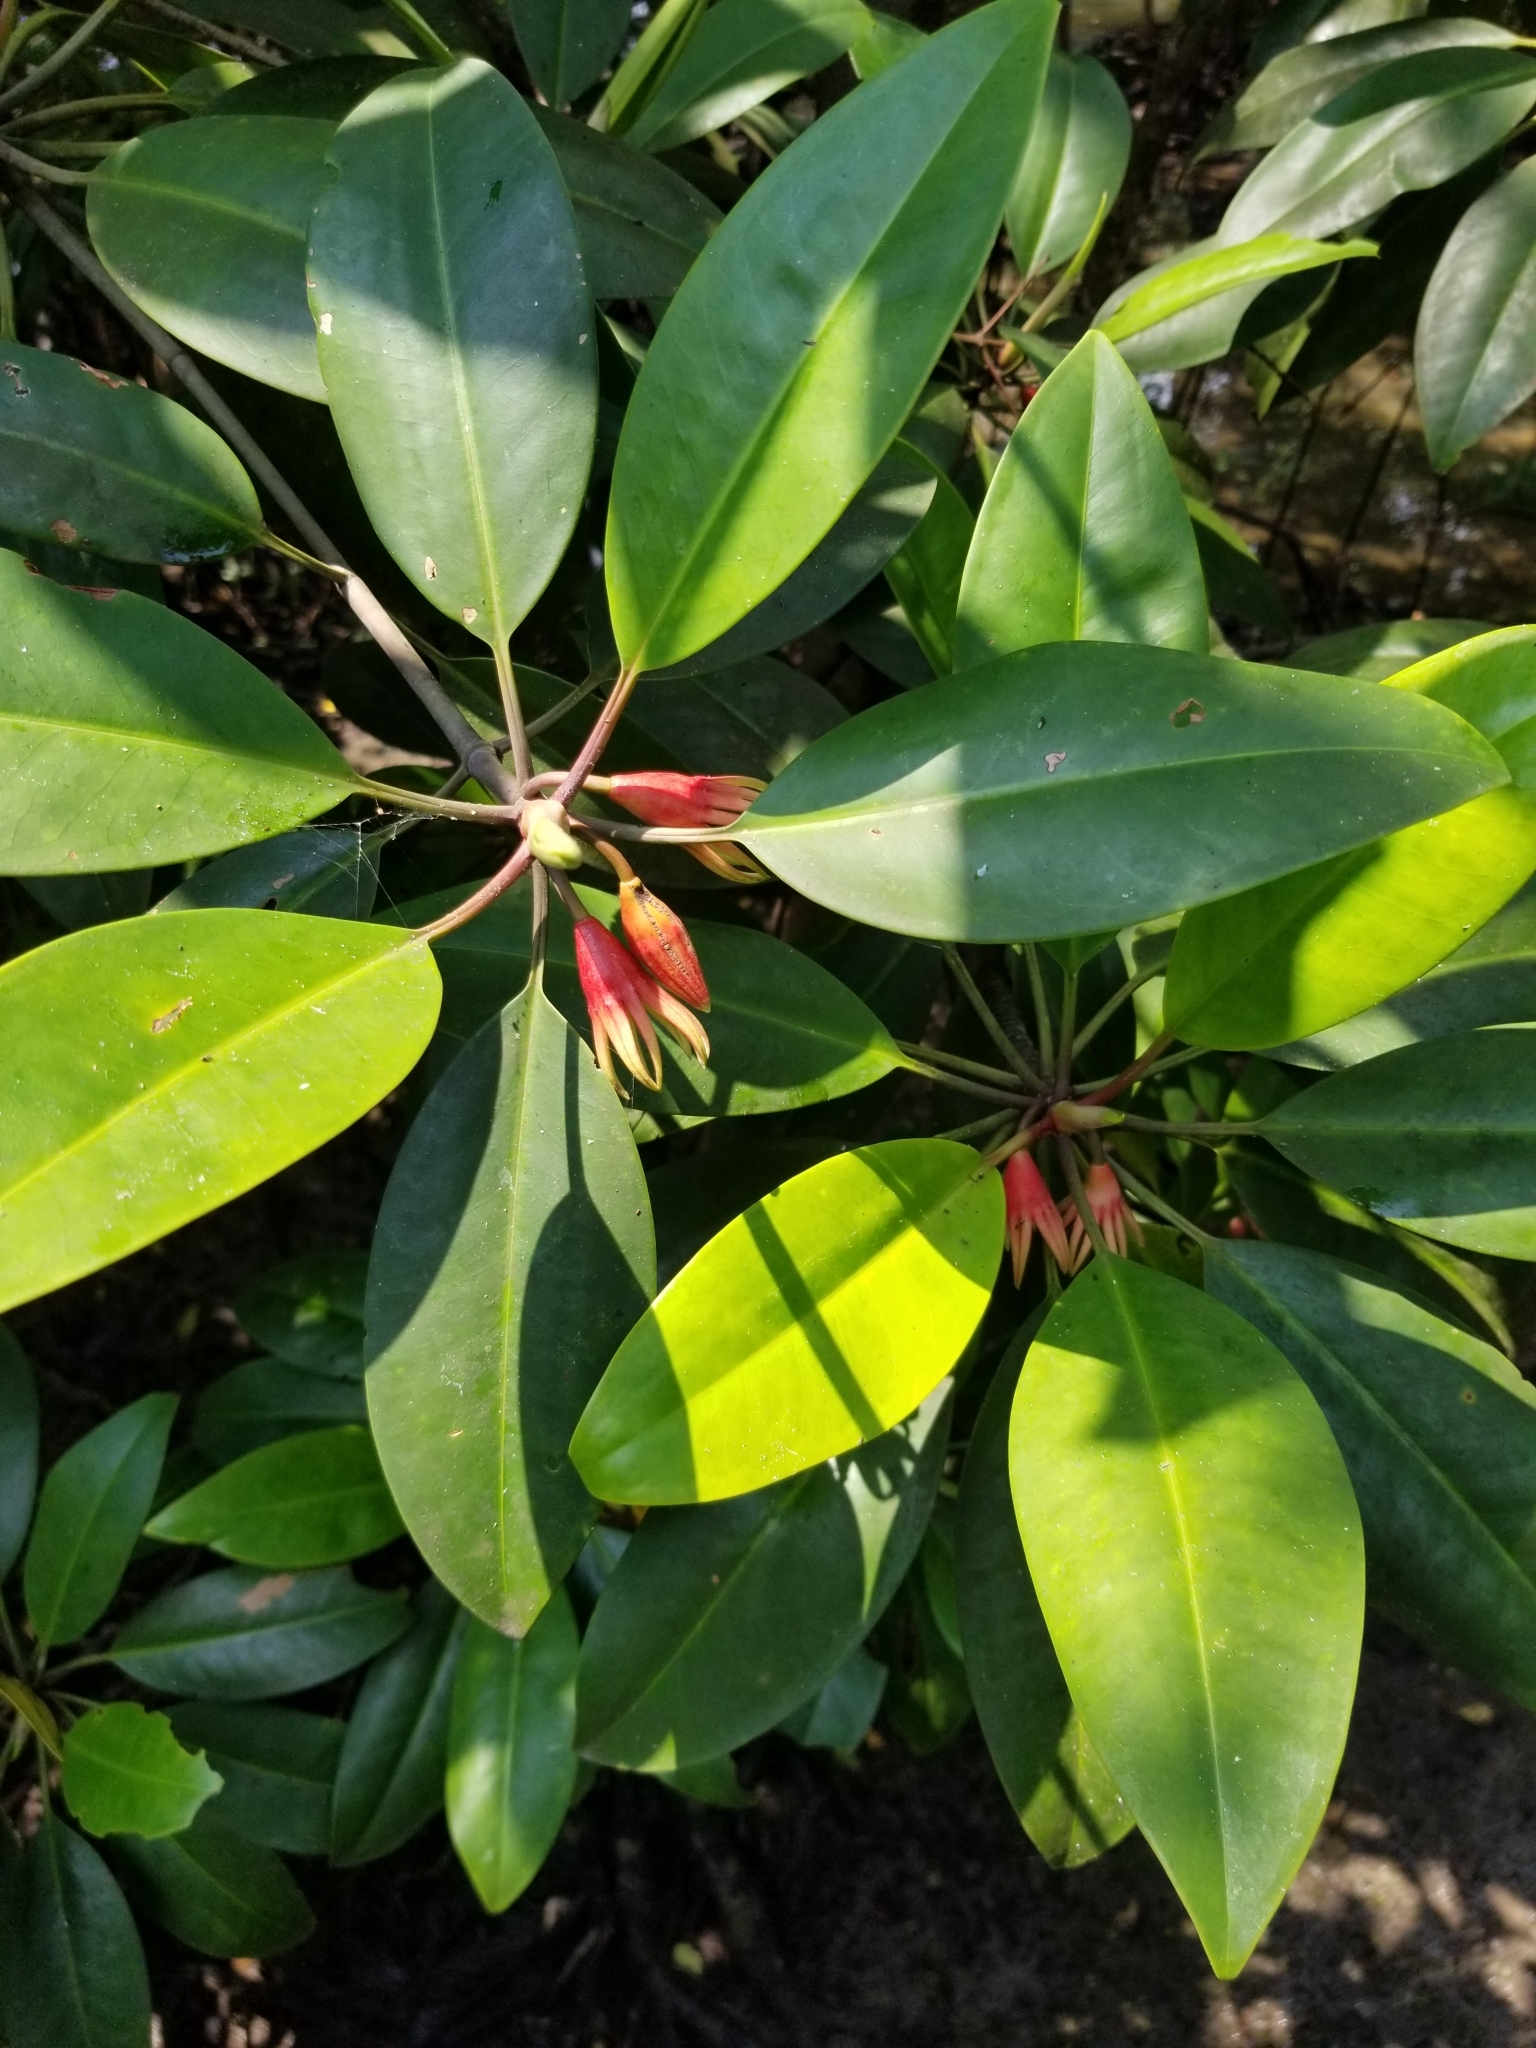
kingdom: Plantae
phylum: Tracheophyta
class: Magnoliopsida
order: Malpighiales
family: Rhizophoraceae
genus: Bruguiera
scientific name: Bruguiera gymnorhiza
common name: Oriental mangrove
